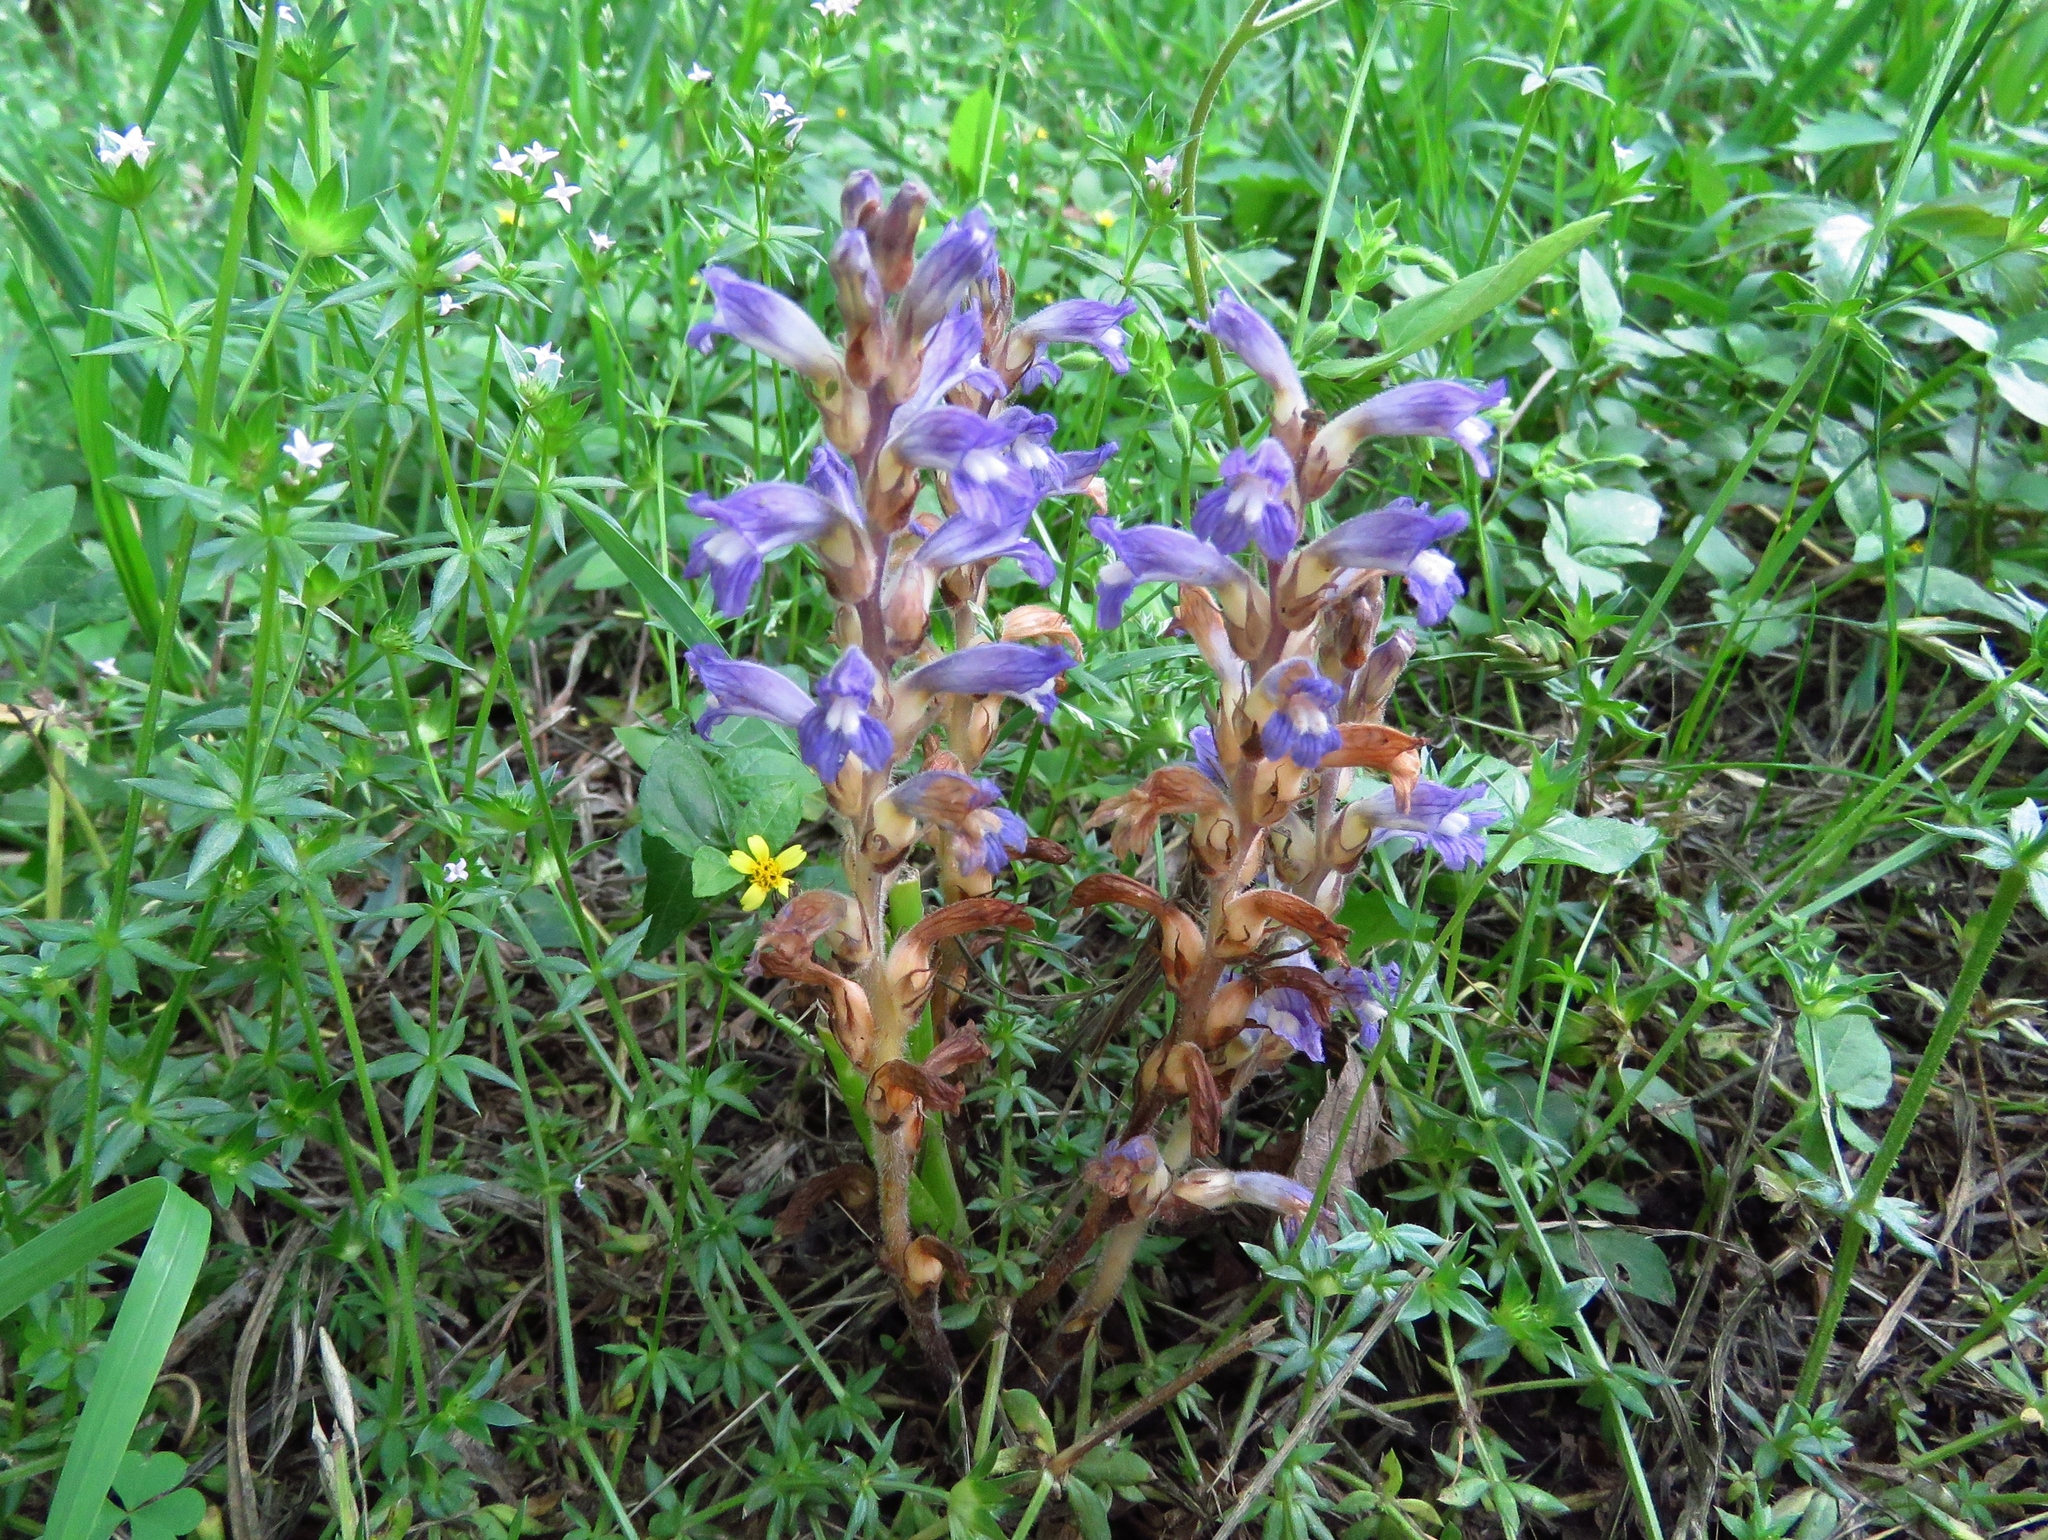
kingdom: Plantae
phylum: Tracheophyta
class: Magnoliopsida
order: Lamiales
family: Orobanchaceae
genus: Phelipanche
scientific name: Phelipanche ramosa
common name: Branched broomrape
